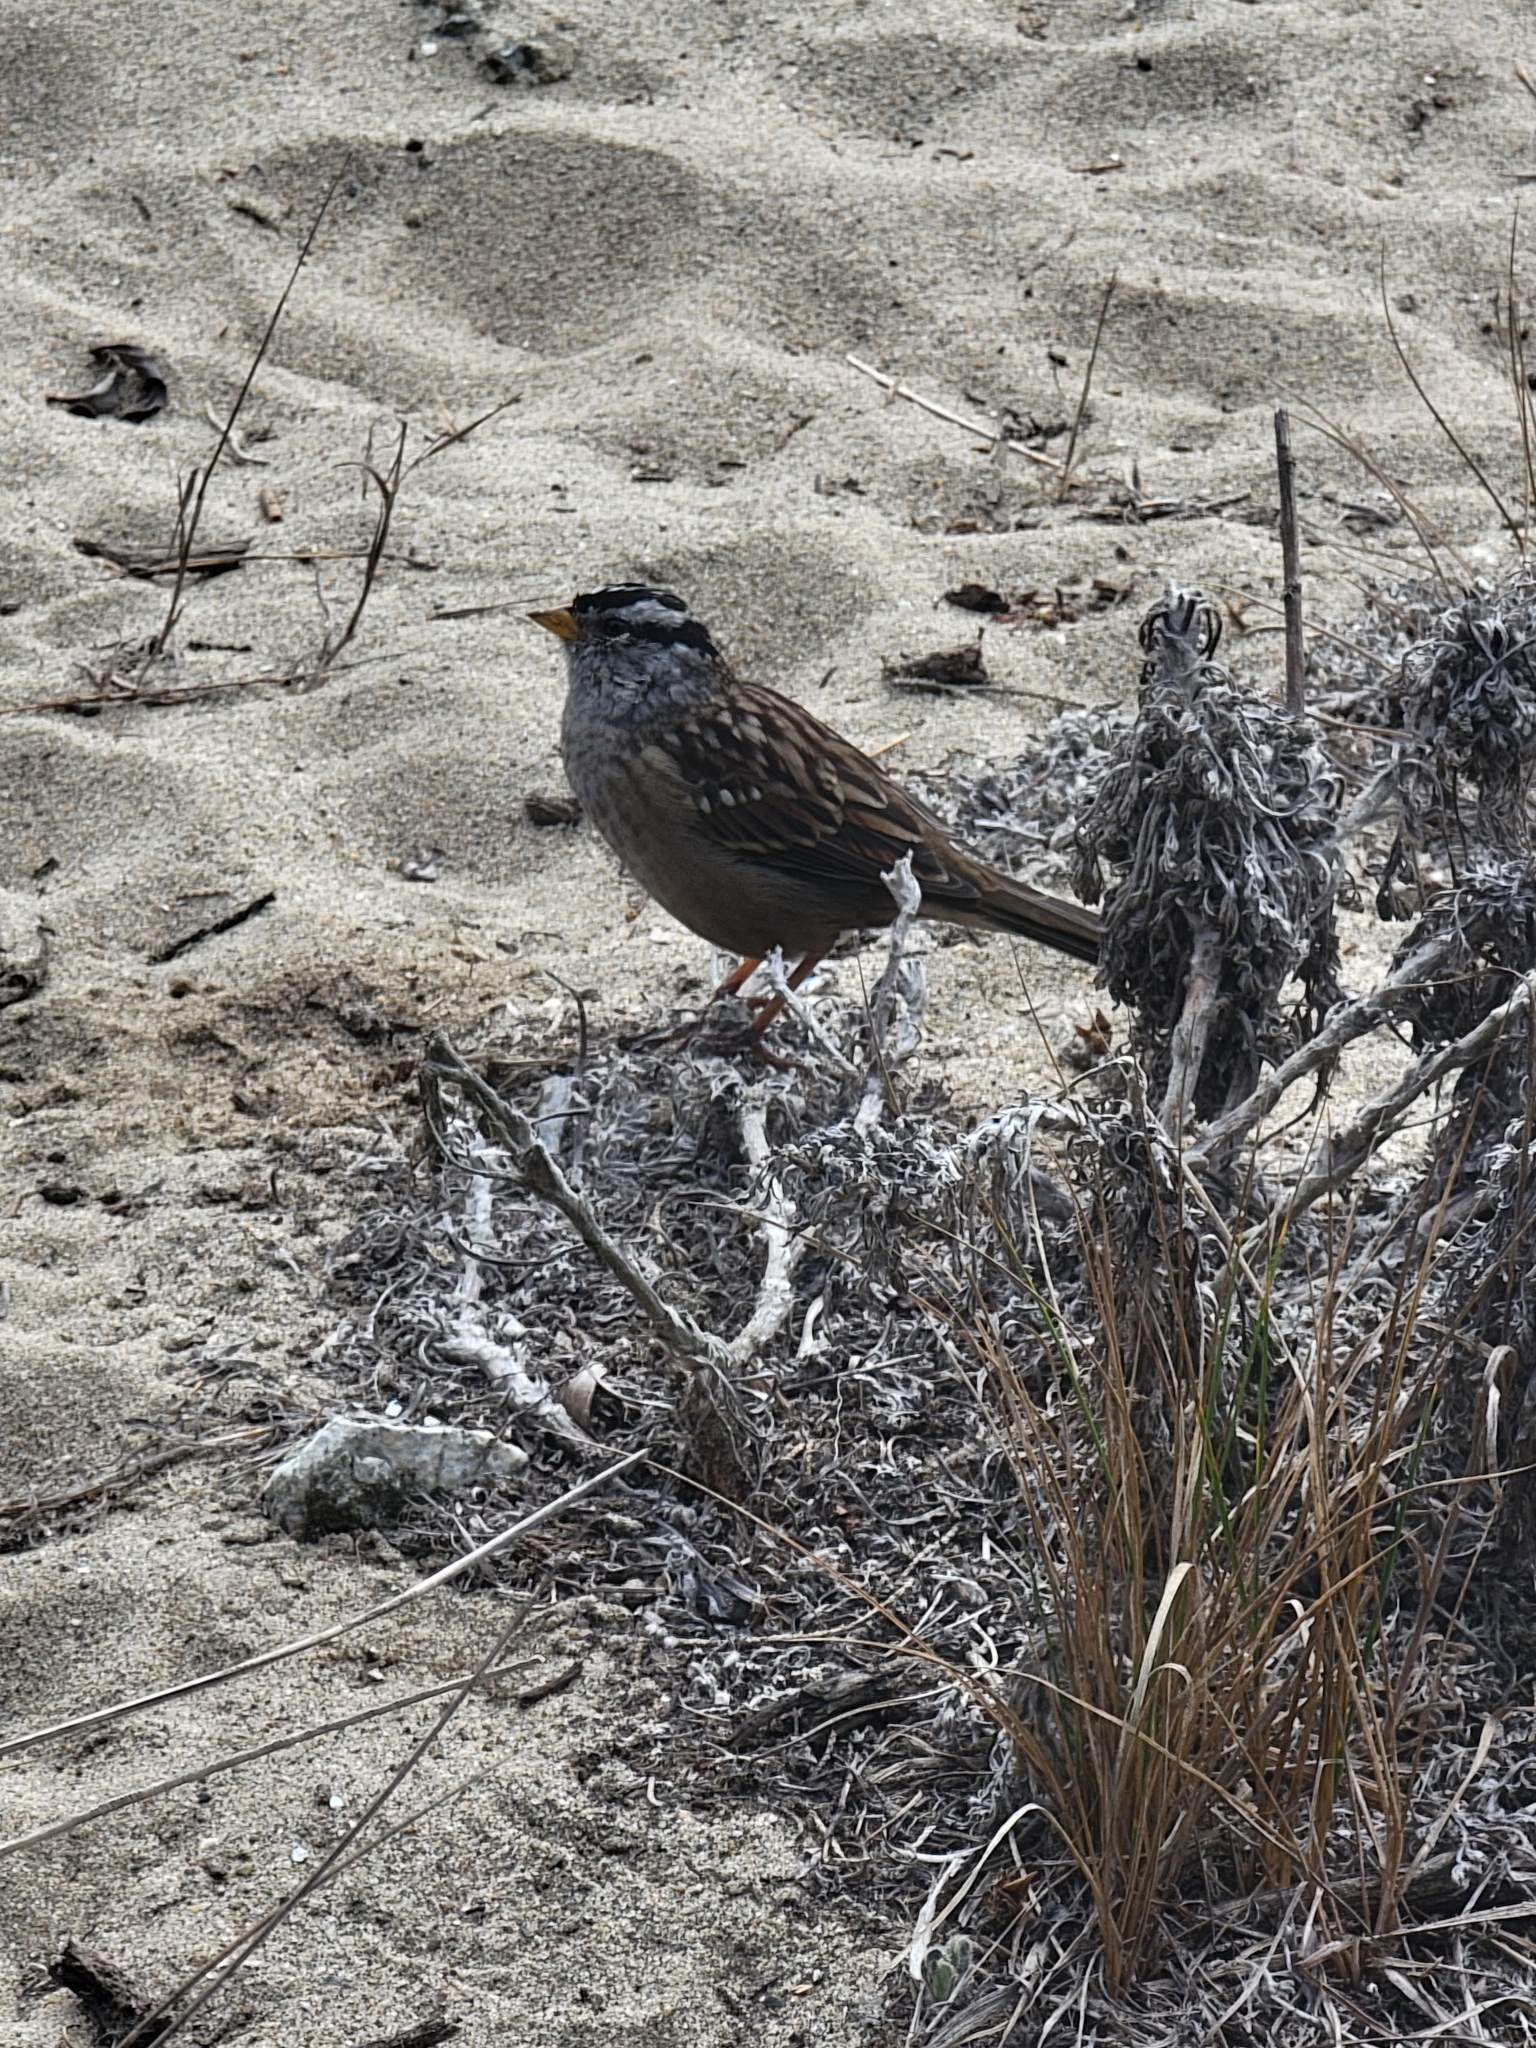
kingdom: Animalia
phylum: Chordata
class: Aves
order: Passeriformes
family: Passerellidae
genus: Zonotrichia
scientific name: Zonotrichia leucophrys
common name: White-crowned sparrow
